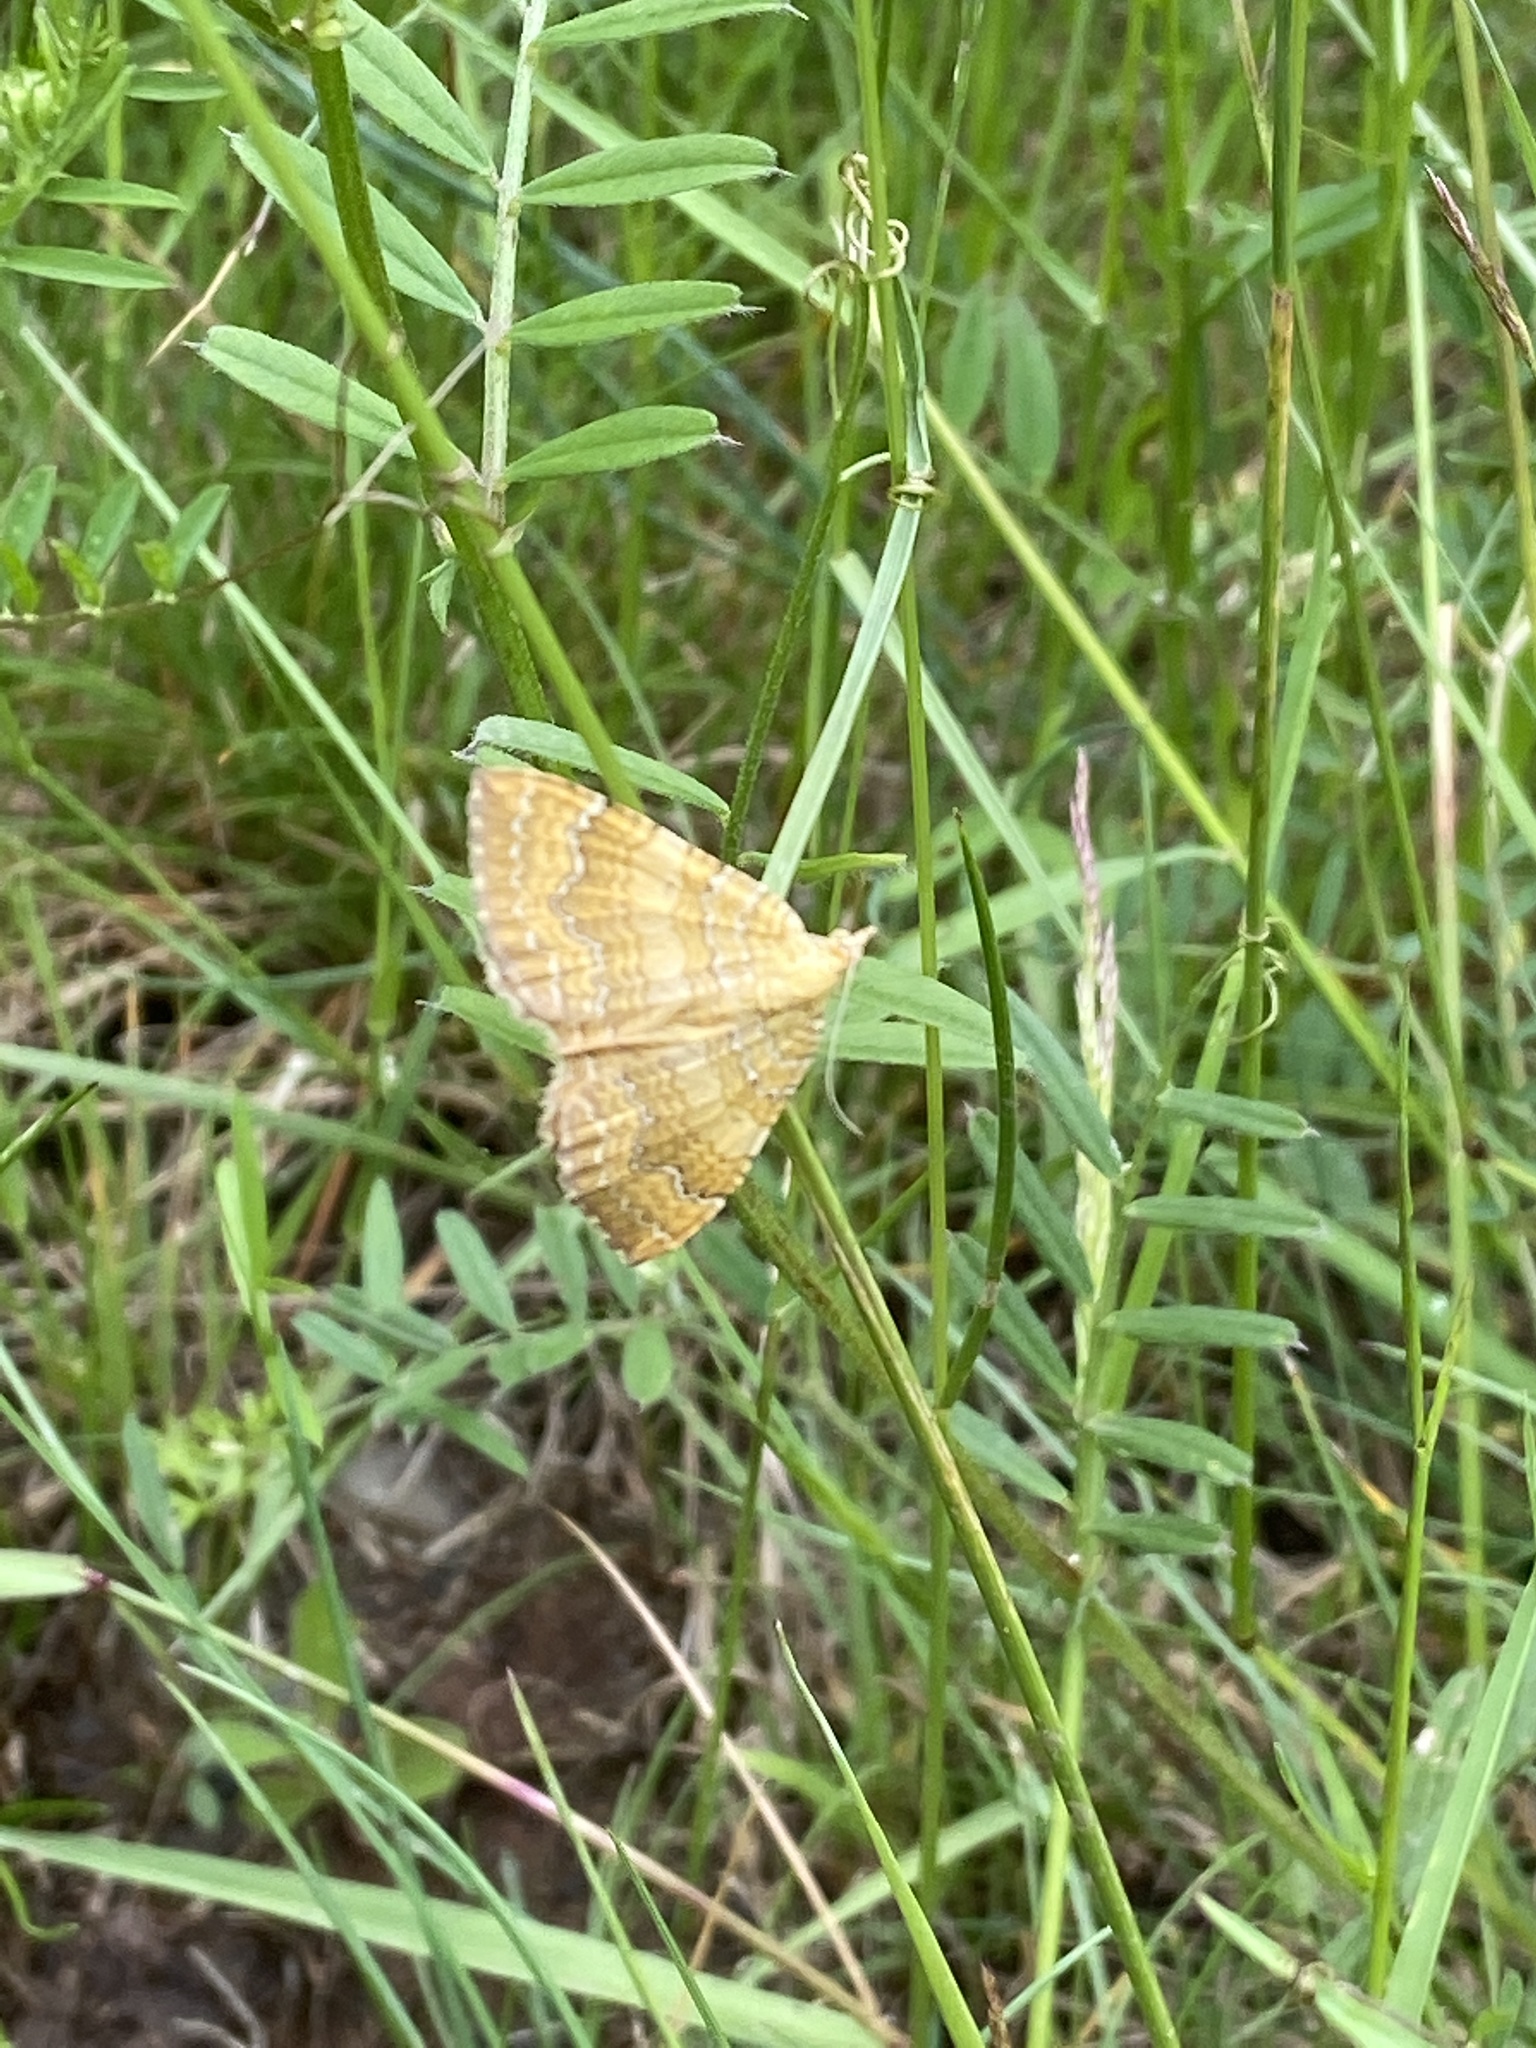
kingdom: Animalia
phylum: Arthropoda
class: Insecta
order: Lepidoptera
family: Geometridae
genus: Camptogramma
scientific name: Camptogramma bilineata
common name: Yellow shell
